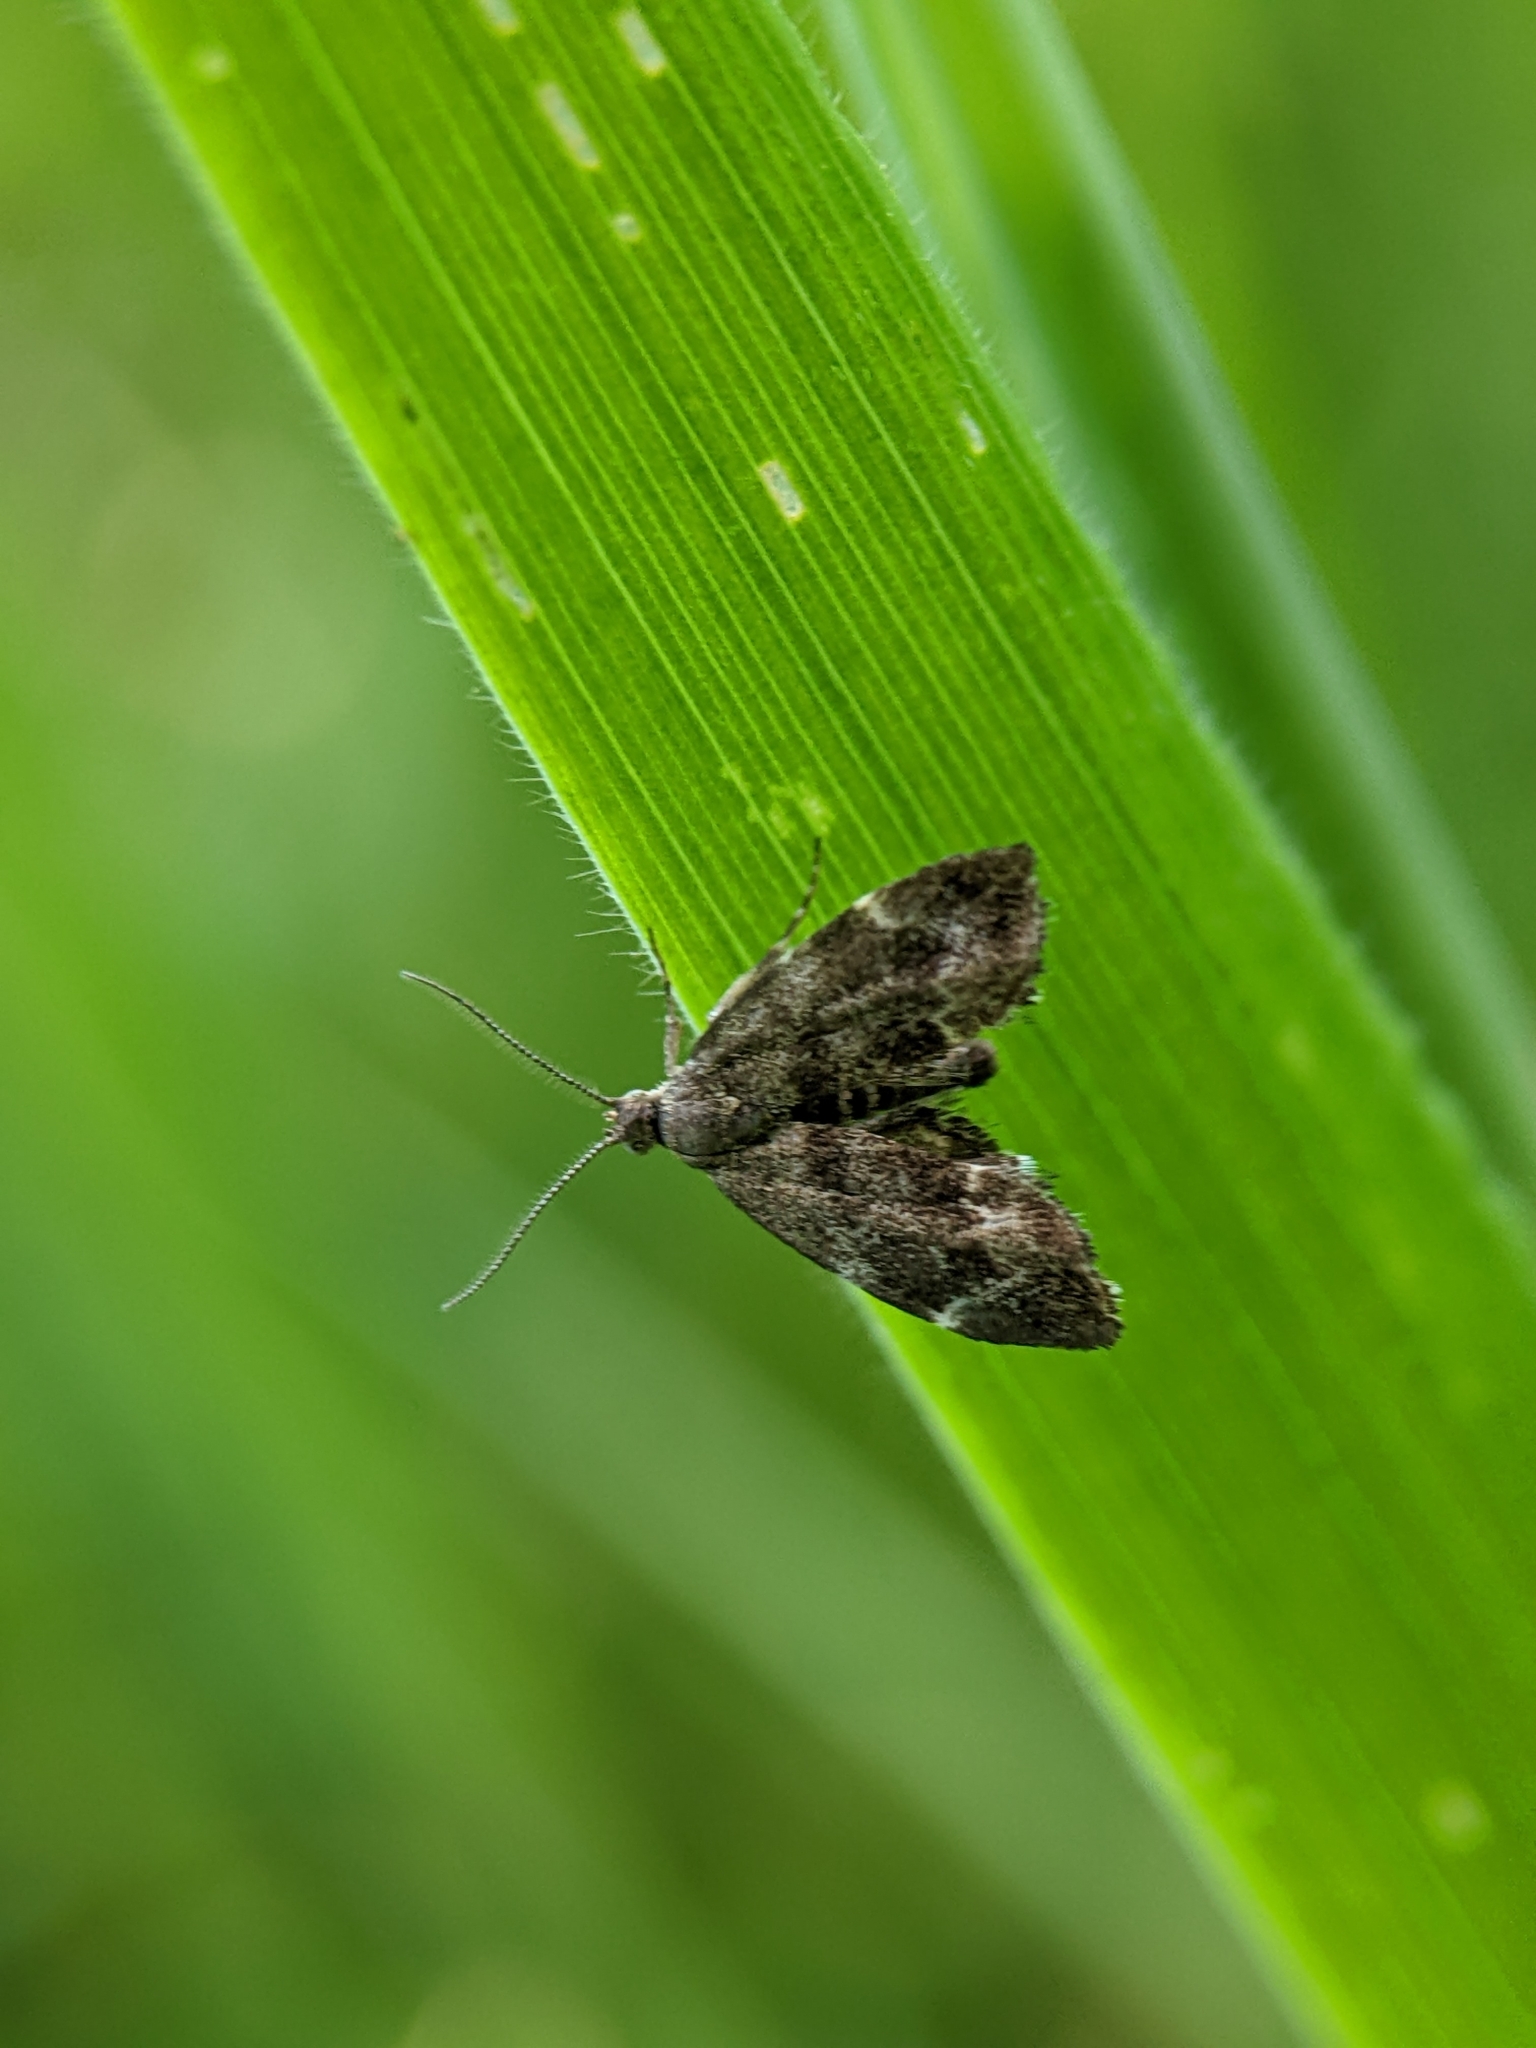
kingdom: Animalia
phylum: Arthropoda
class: Insecta
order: Lepidoptera
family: Choreutidae
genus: Anthophila
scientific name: Anthophila fabriciana
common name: Nettle-tap
